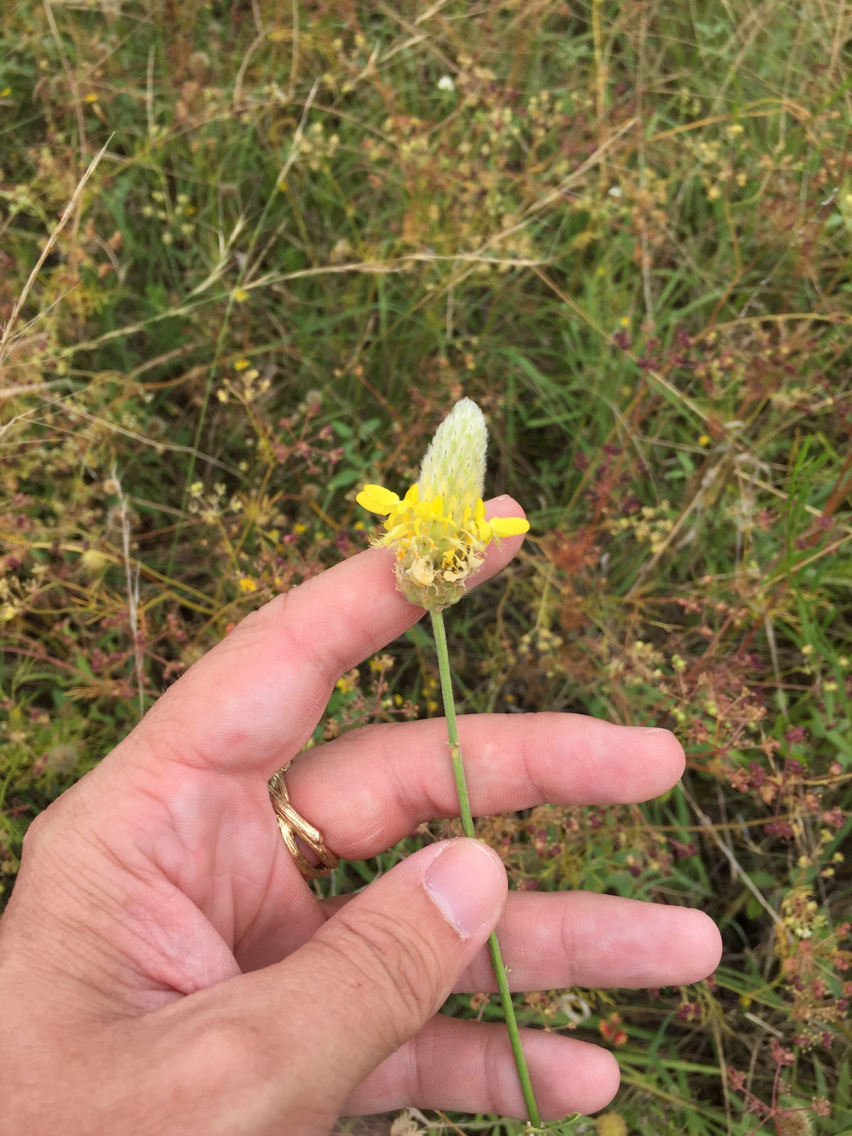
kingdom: Plantae
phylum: Tracheophyta
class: Magnoliopsida
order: Fabales
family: Fabaceae
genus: Dalea
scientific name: Dalea aurea
